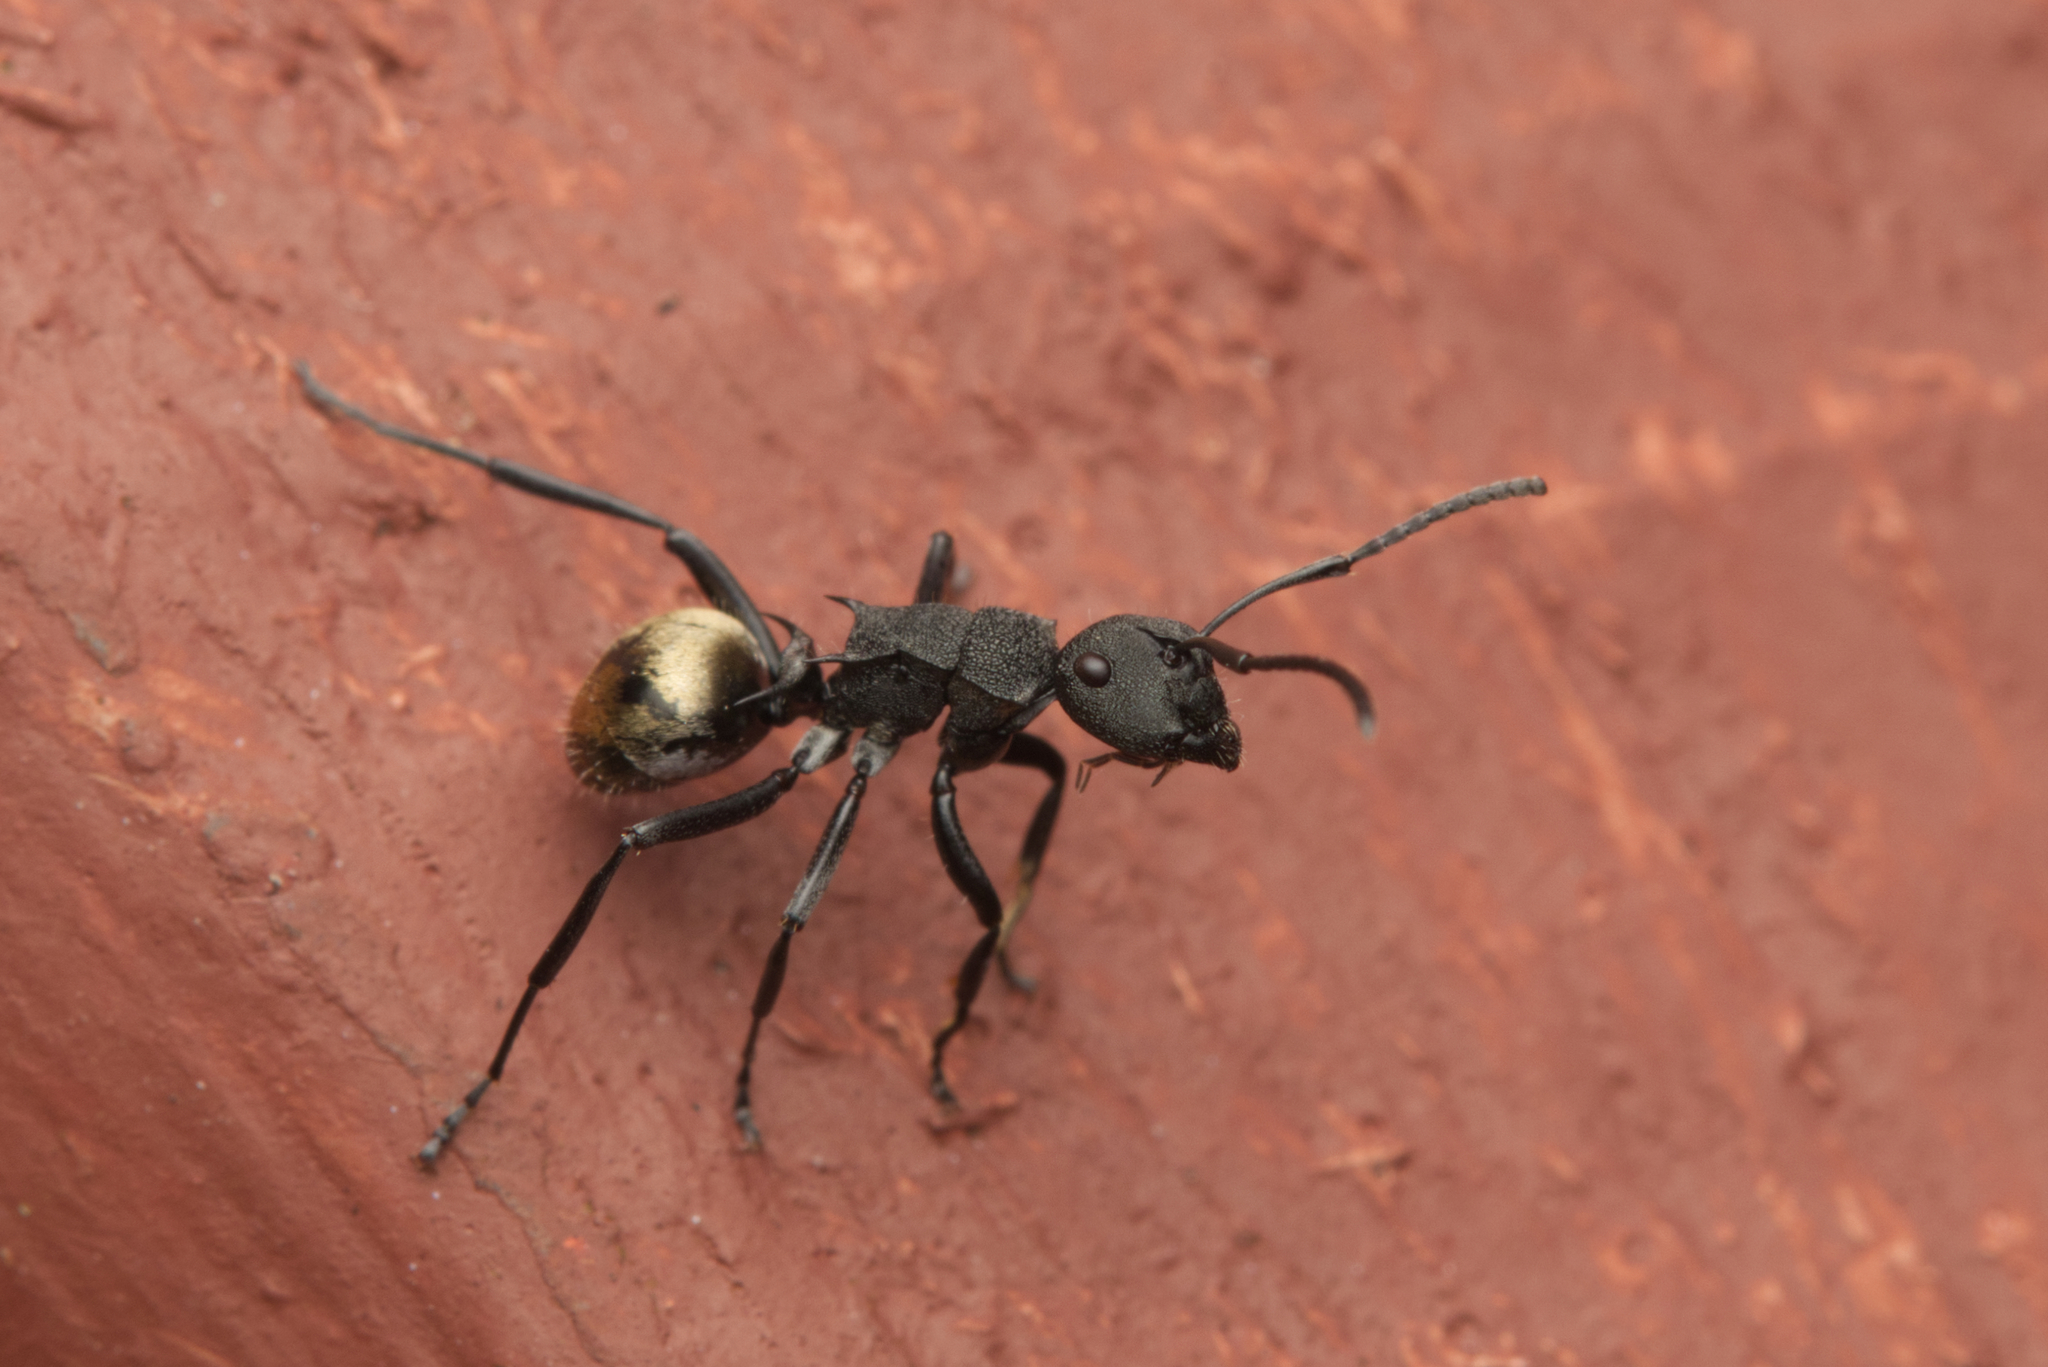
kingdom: Animalia
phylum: Arthropoda
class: Insecta
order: Hymenoptera
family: Formicidae
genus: Polyrhachis
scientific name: Polyrhachis erato
